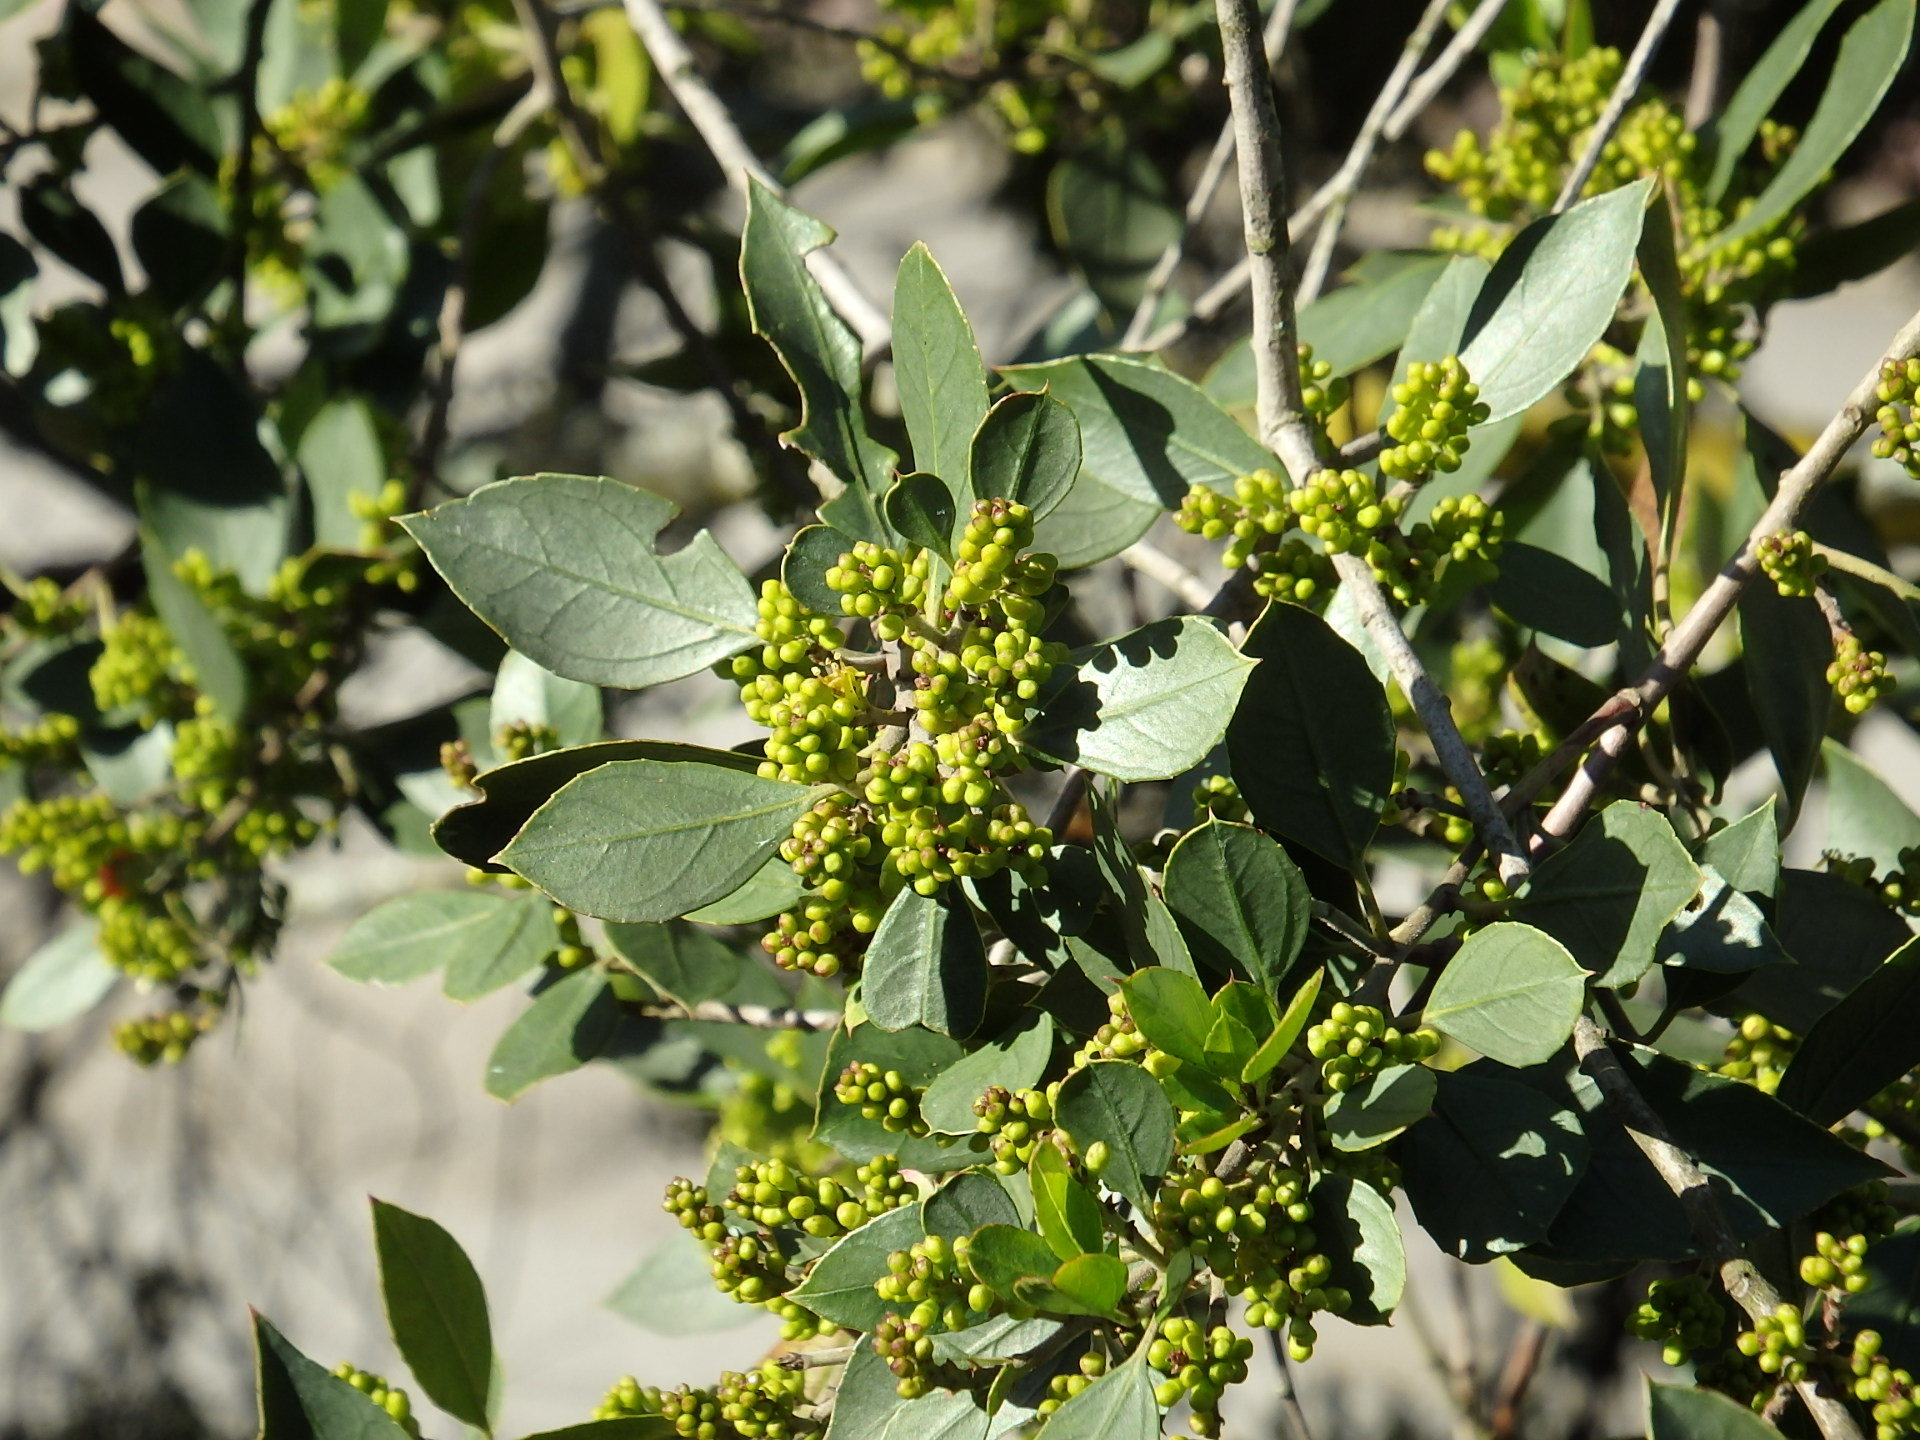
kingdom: Plantae
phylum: Tracheophyta
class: Magnoliopsida
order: Rosales
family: Rhamnaceae
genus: Rhamnus
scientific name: Rhamnus alaternus
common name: Mediterranean buckthorn
